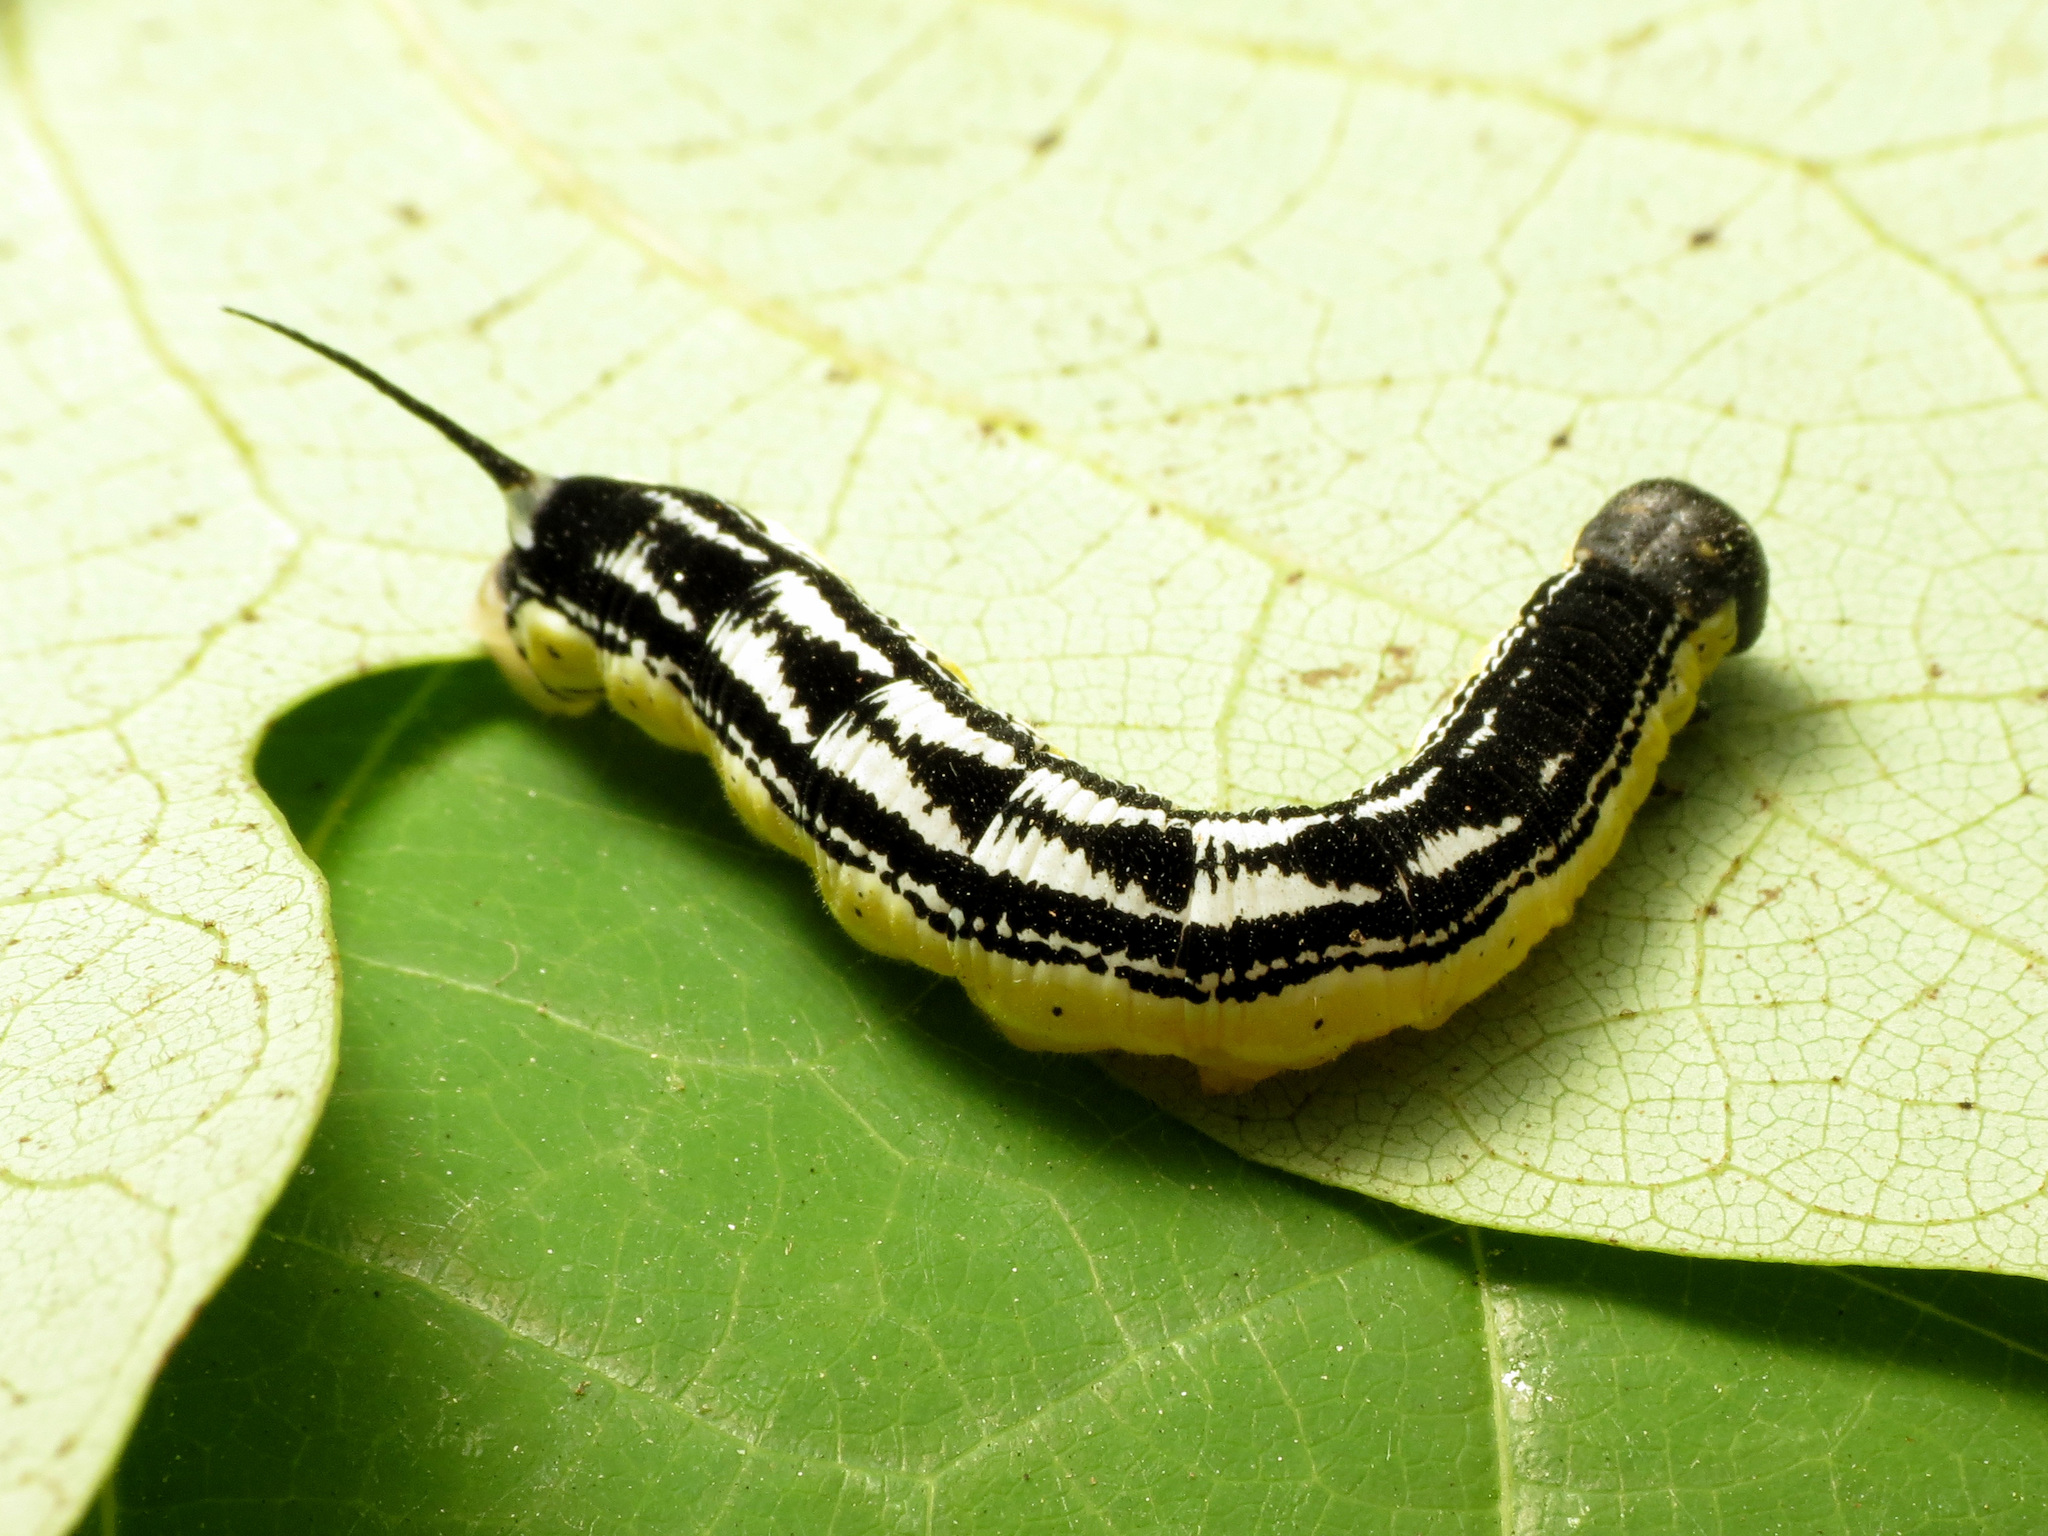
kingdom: Animalia
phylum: Arthropoda
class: Insecta
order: Lepidoptera
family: Sphingidae
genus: Ceratomia
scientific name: Ceratomia catalpae
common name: Catalpa hornworm
